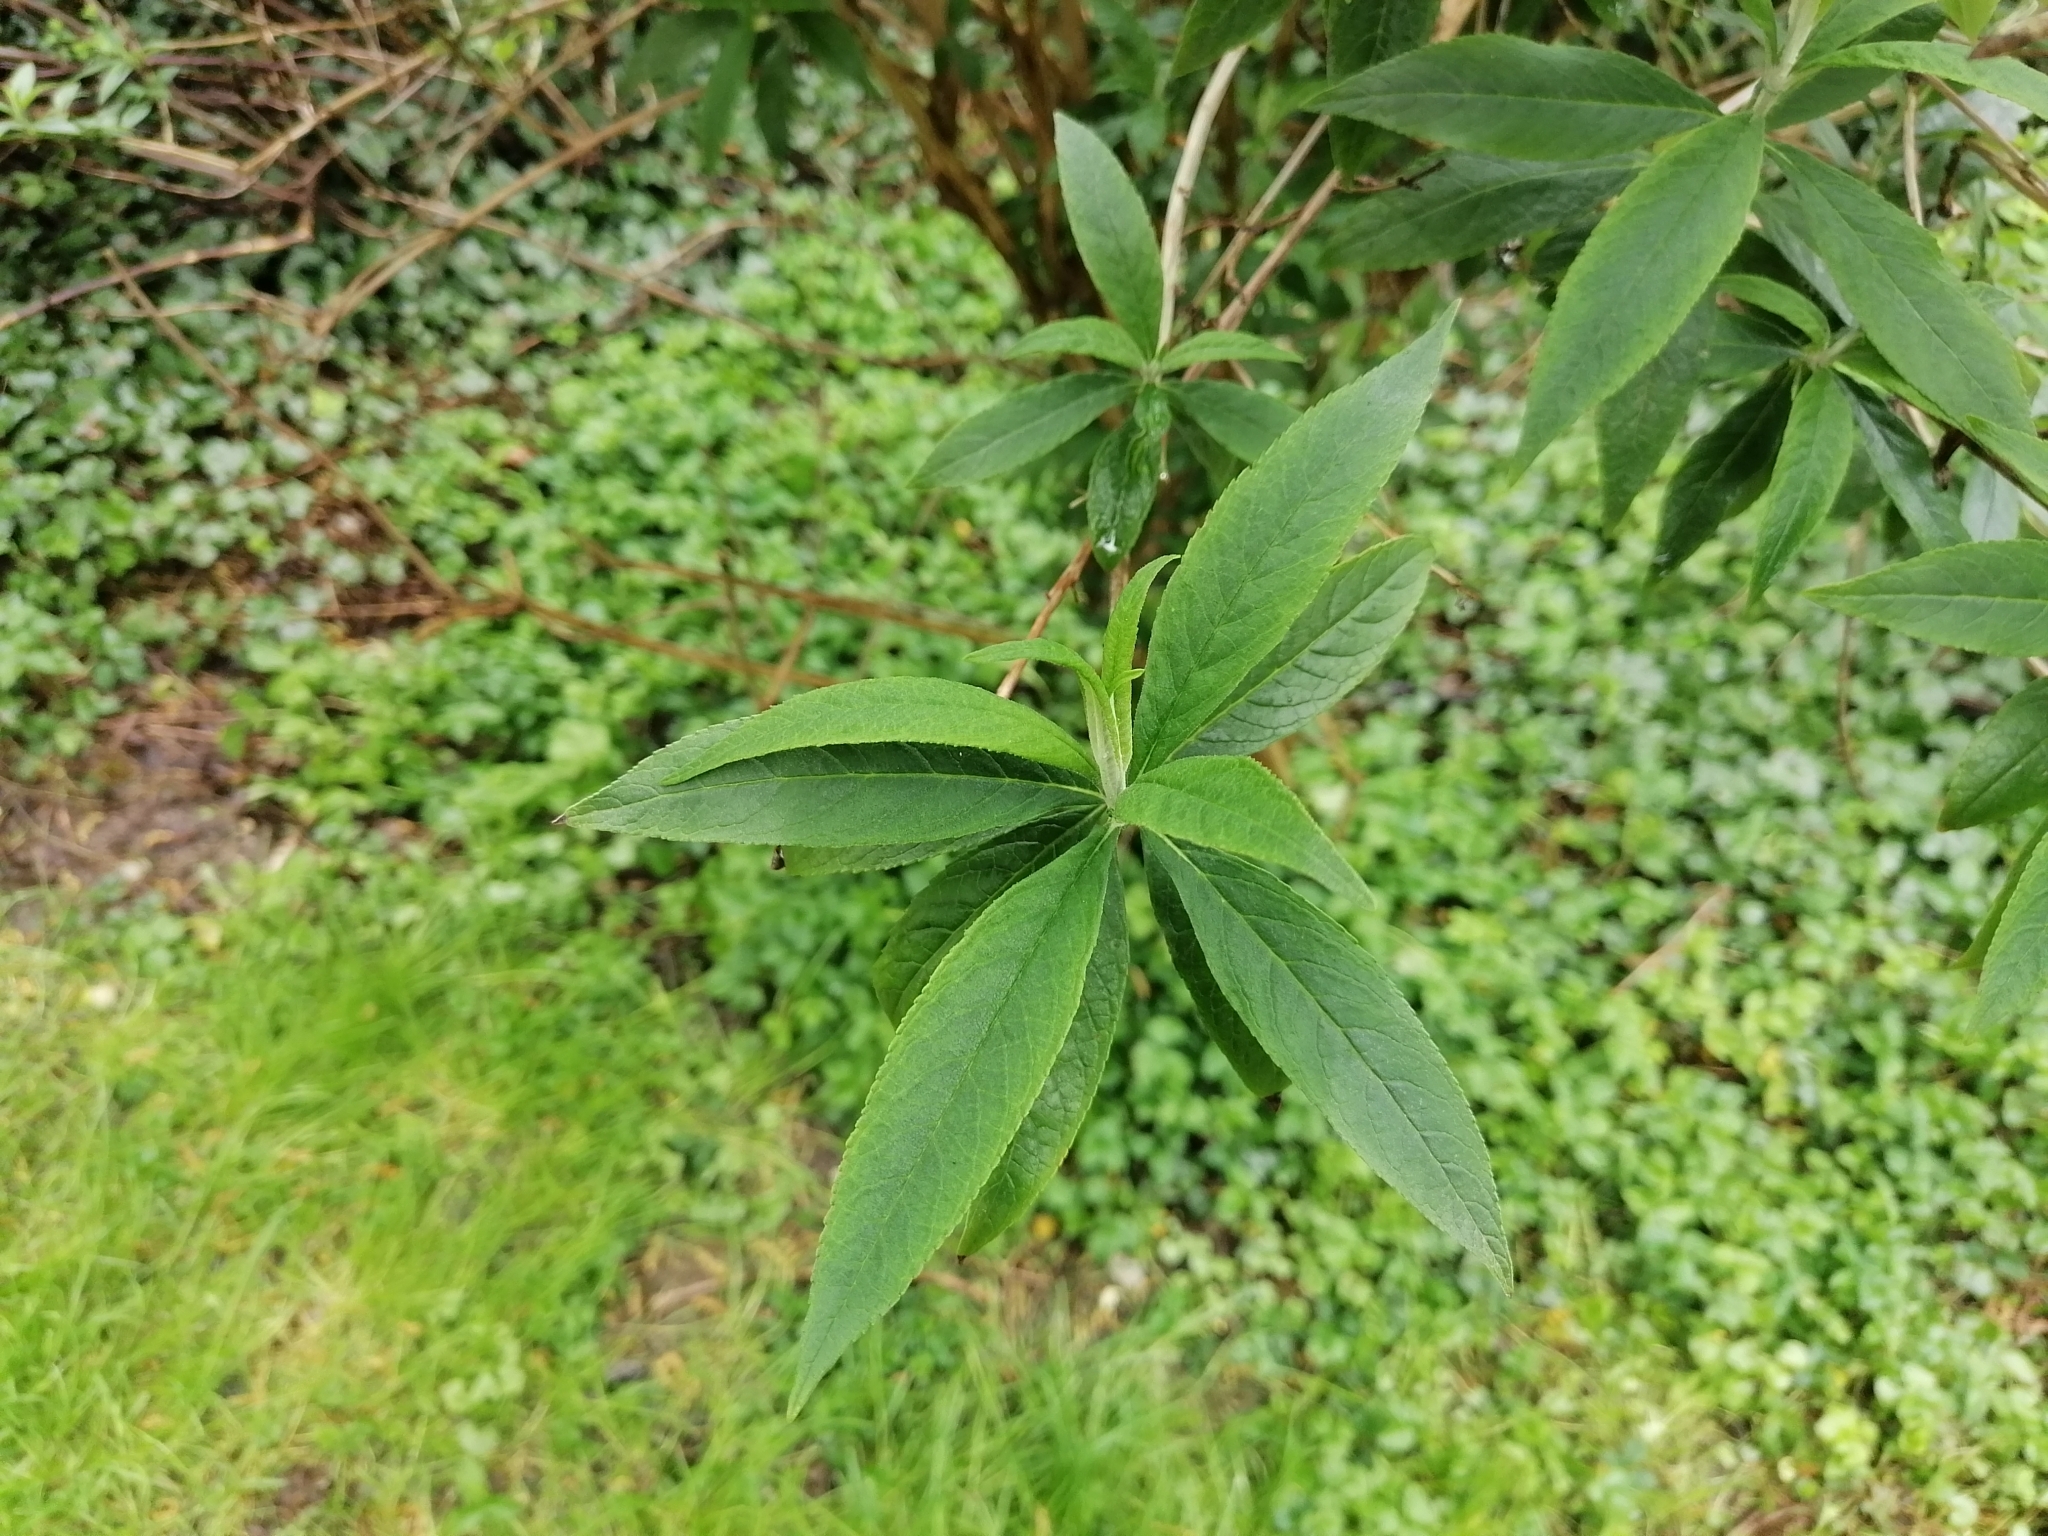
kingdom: Plantae
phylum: Tracheophyta
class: Magnoliopsida
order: Lamiales
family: Scrophulariaceae
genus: Buddleja
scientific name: Buddleja davidii
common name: Butterfly-bush
